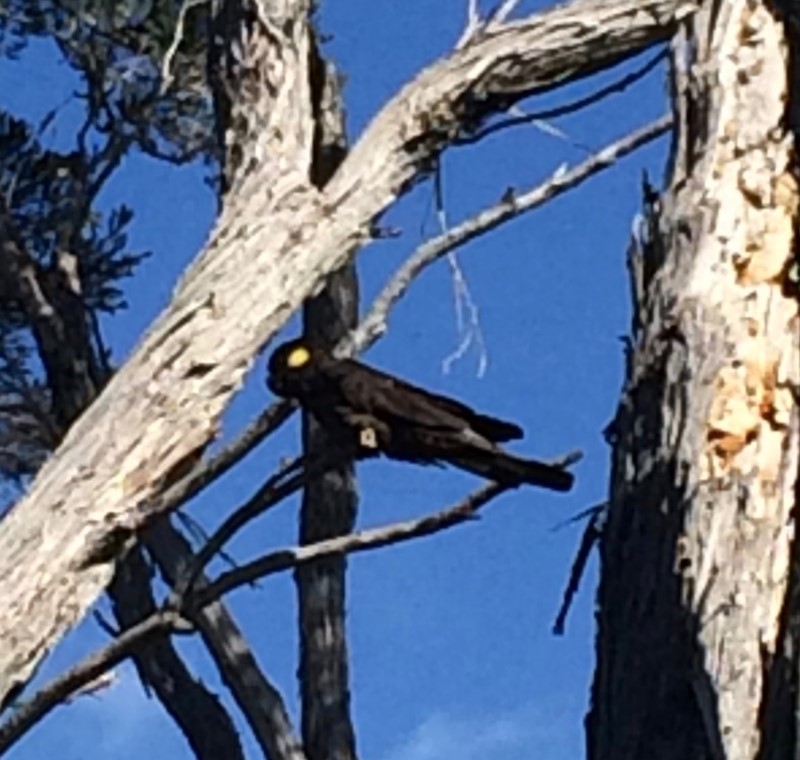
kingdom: Animalia
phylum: Chordata
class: Aves
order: Psittaciformes
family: Cacatuidae
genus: Zanda
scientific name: Zanda funerea
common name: Yellow-tailed black-cockatoo
